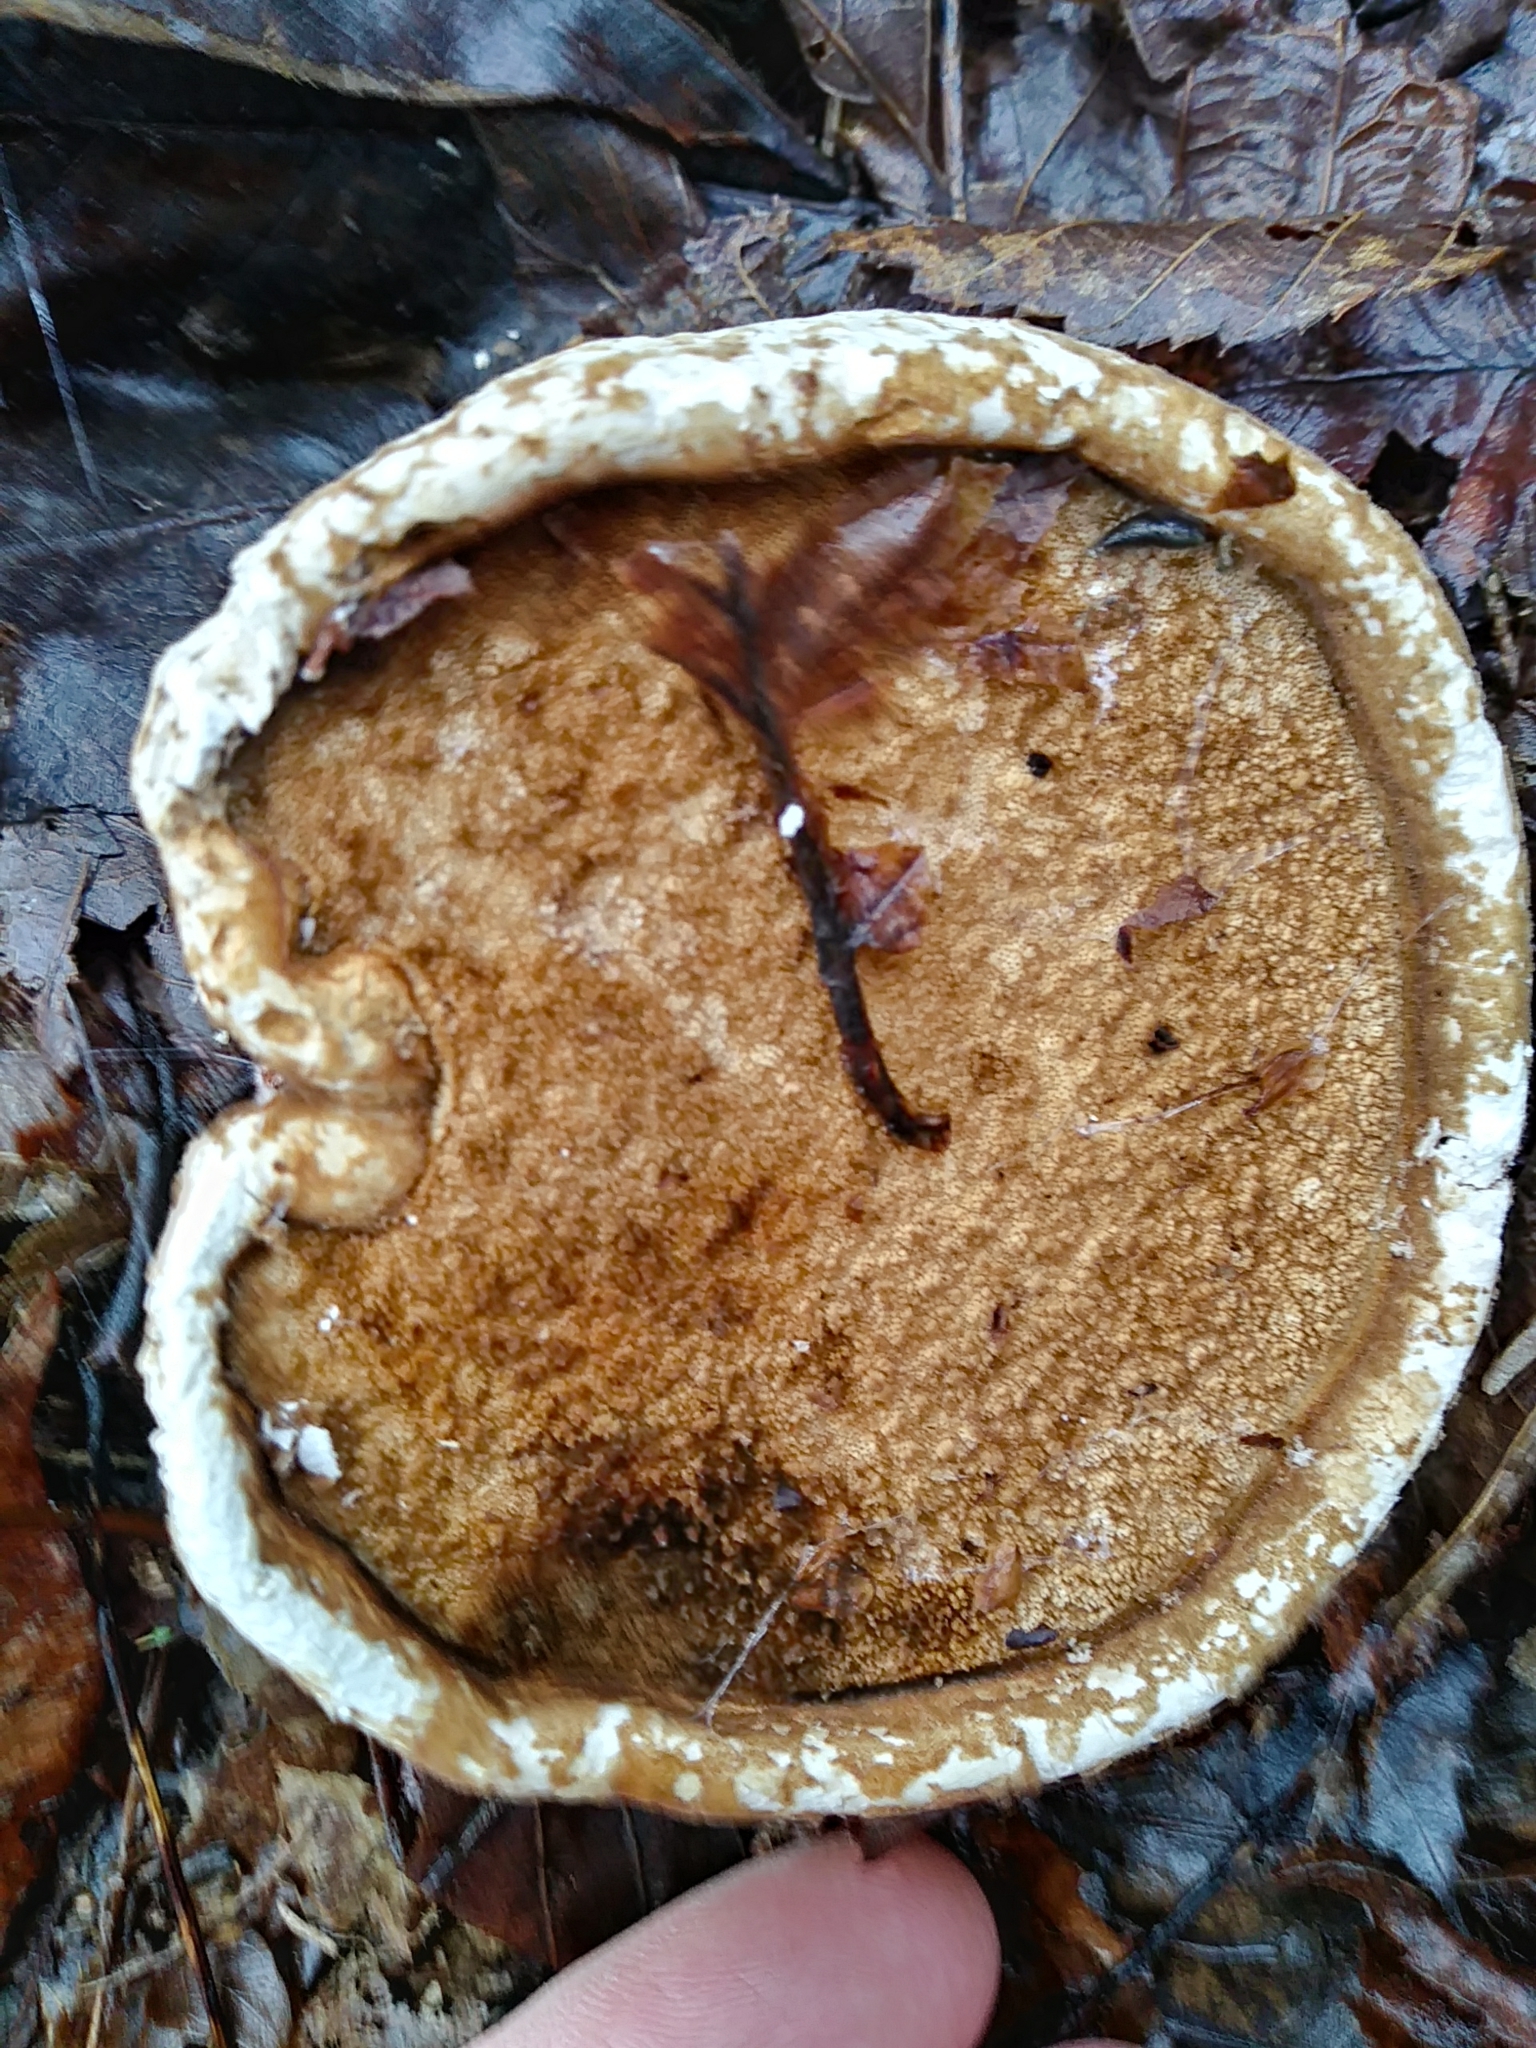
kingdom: Fungi
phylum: Basidiomycota
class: Agaricomycetes
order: Polyporales
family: Fomitopsidaceae
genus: Fomitopsis
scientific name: Fomitopsis betulina
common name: Birch polypore
